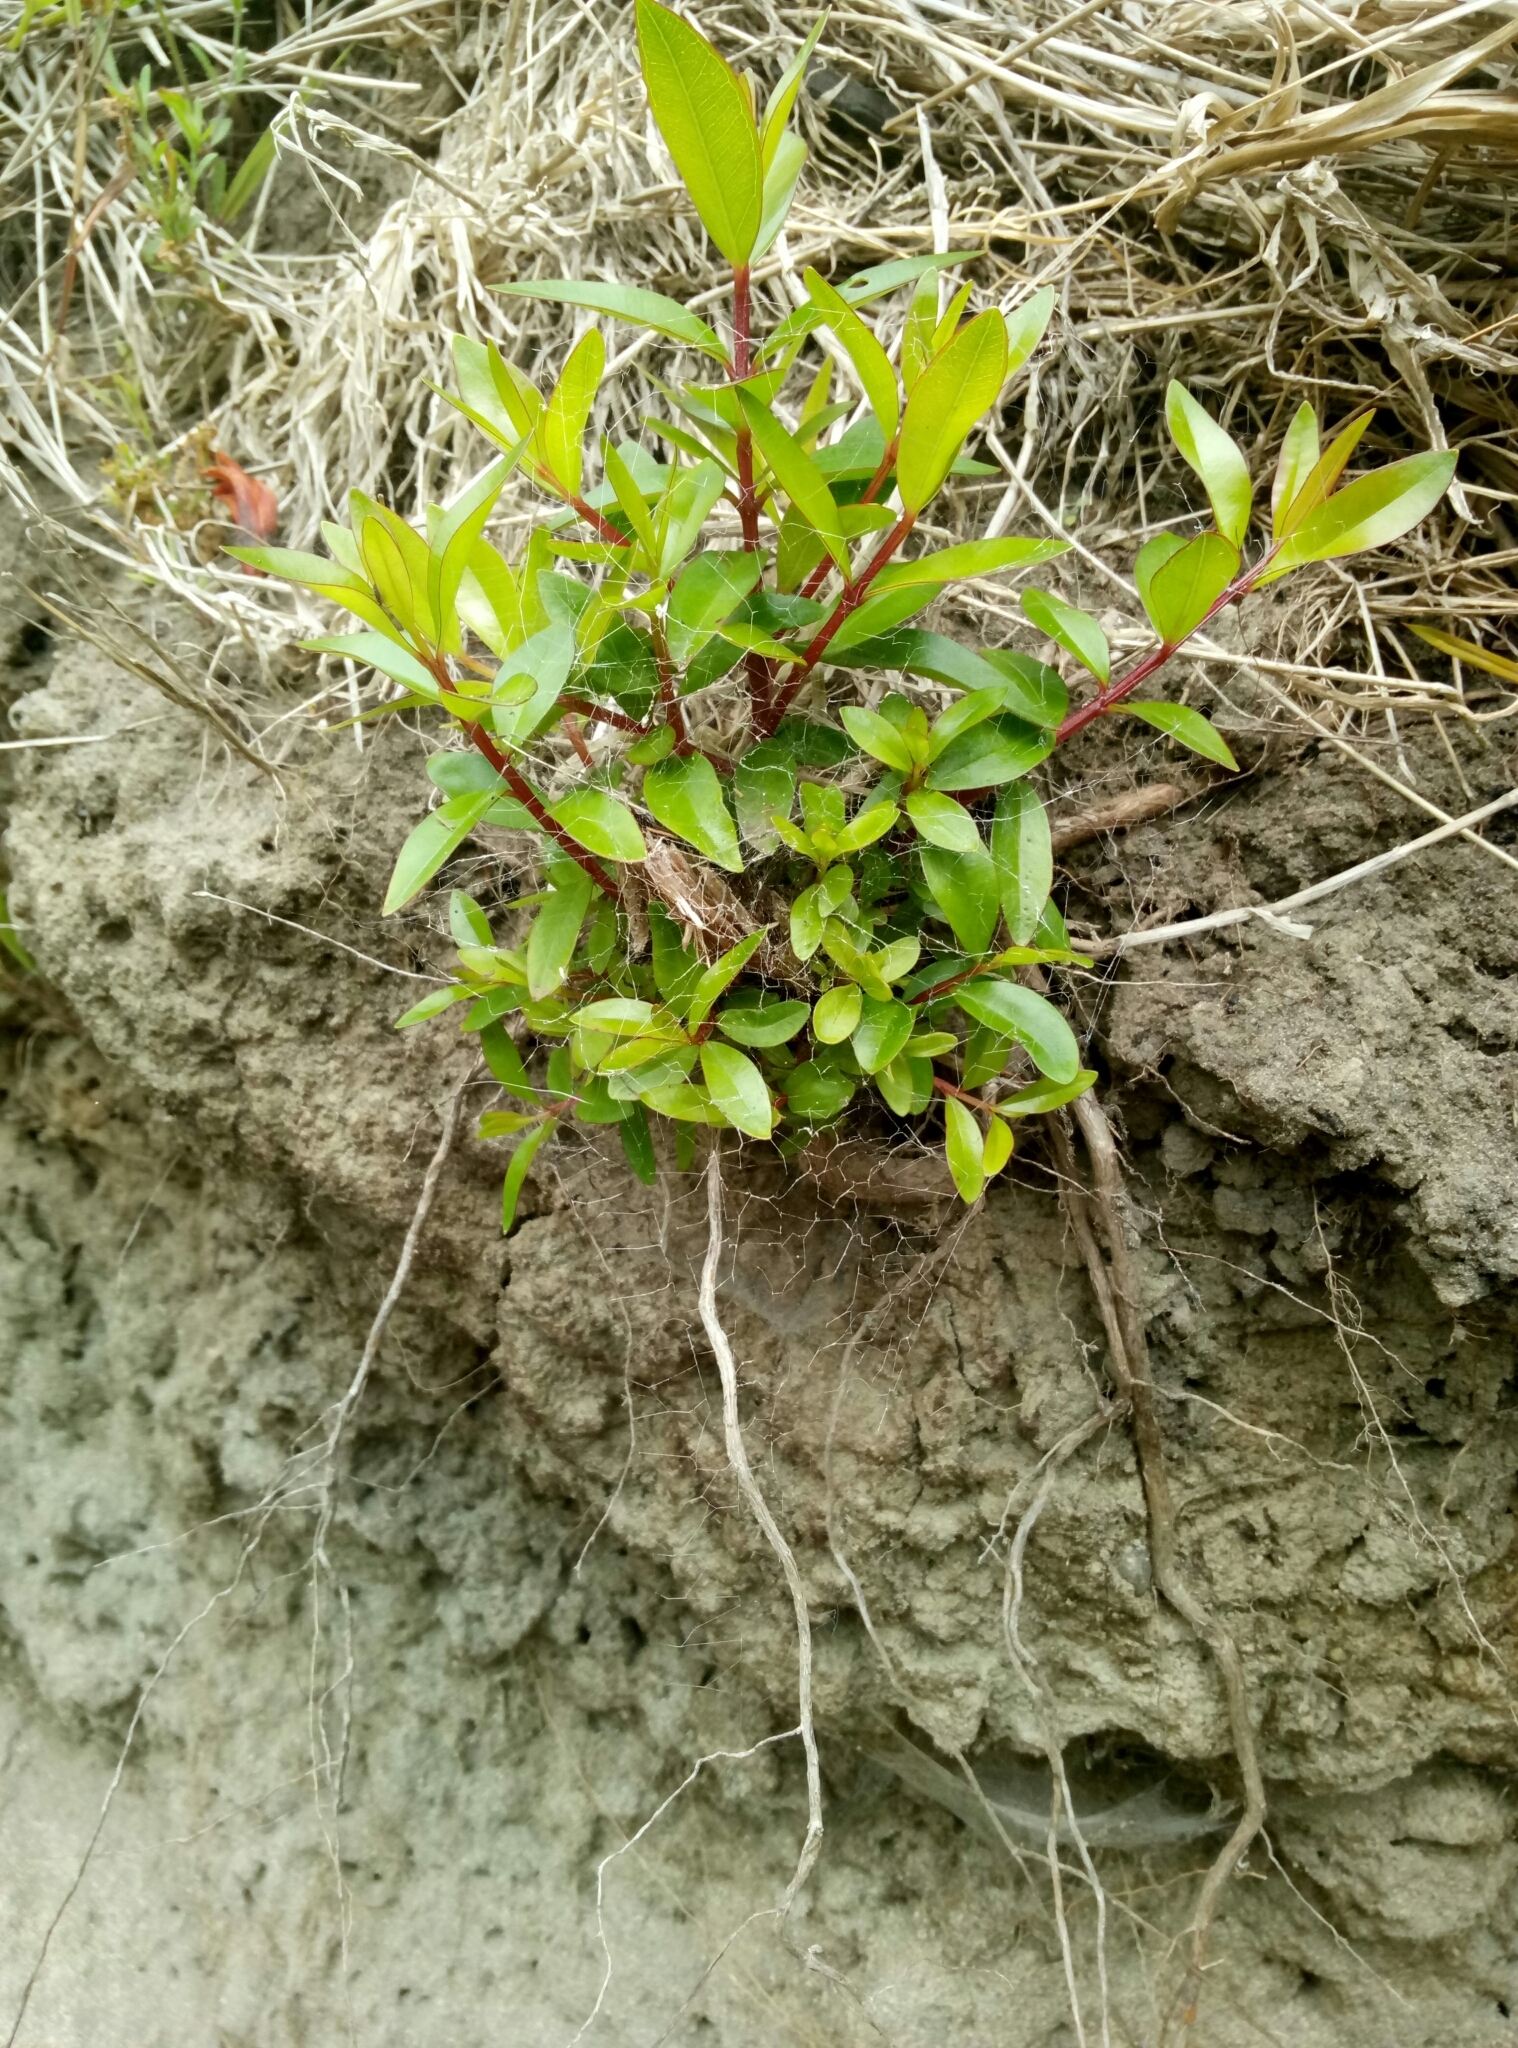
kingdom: Plantae
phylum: Tracheophyta
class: Magnoliopsida
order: Myrtales
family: Myrtaceae
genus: Metrosideros
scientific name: Metrosideros excelsa
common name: New zealand christmastree
